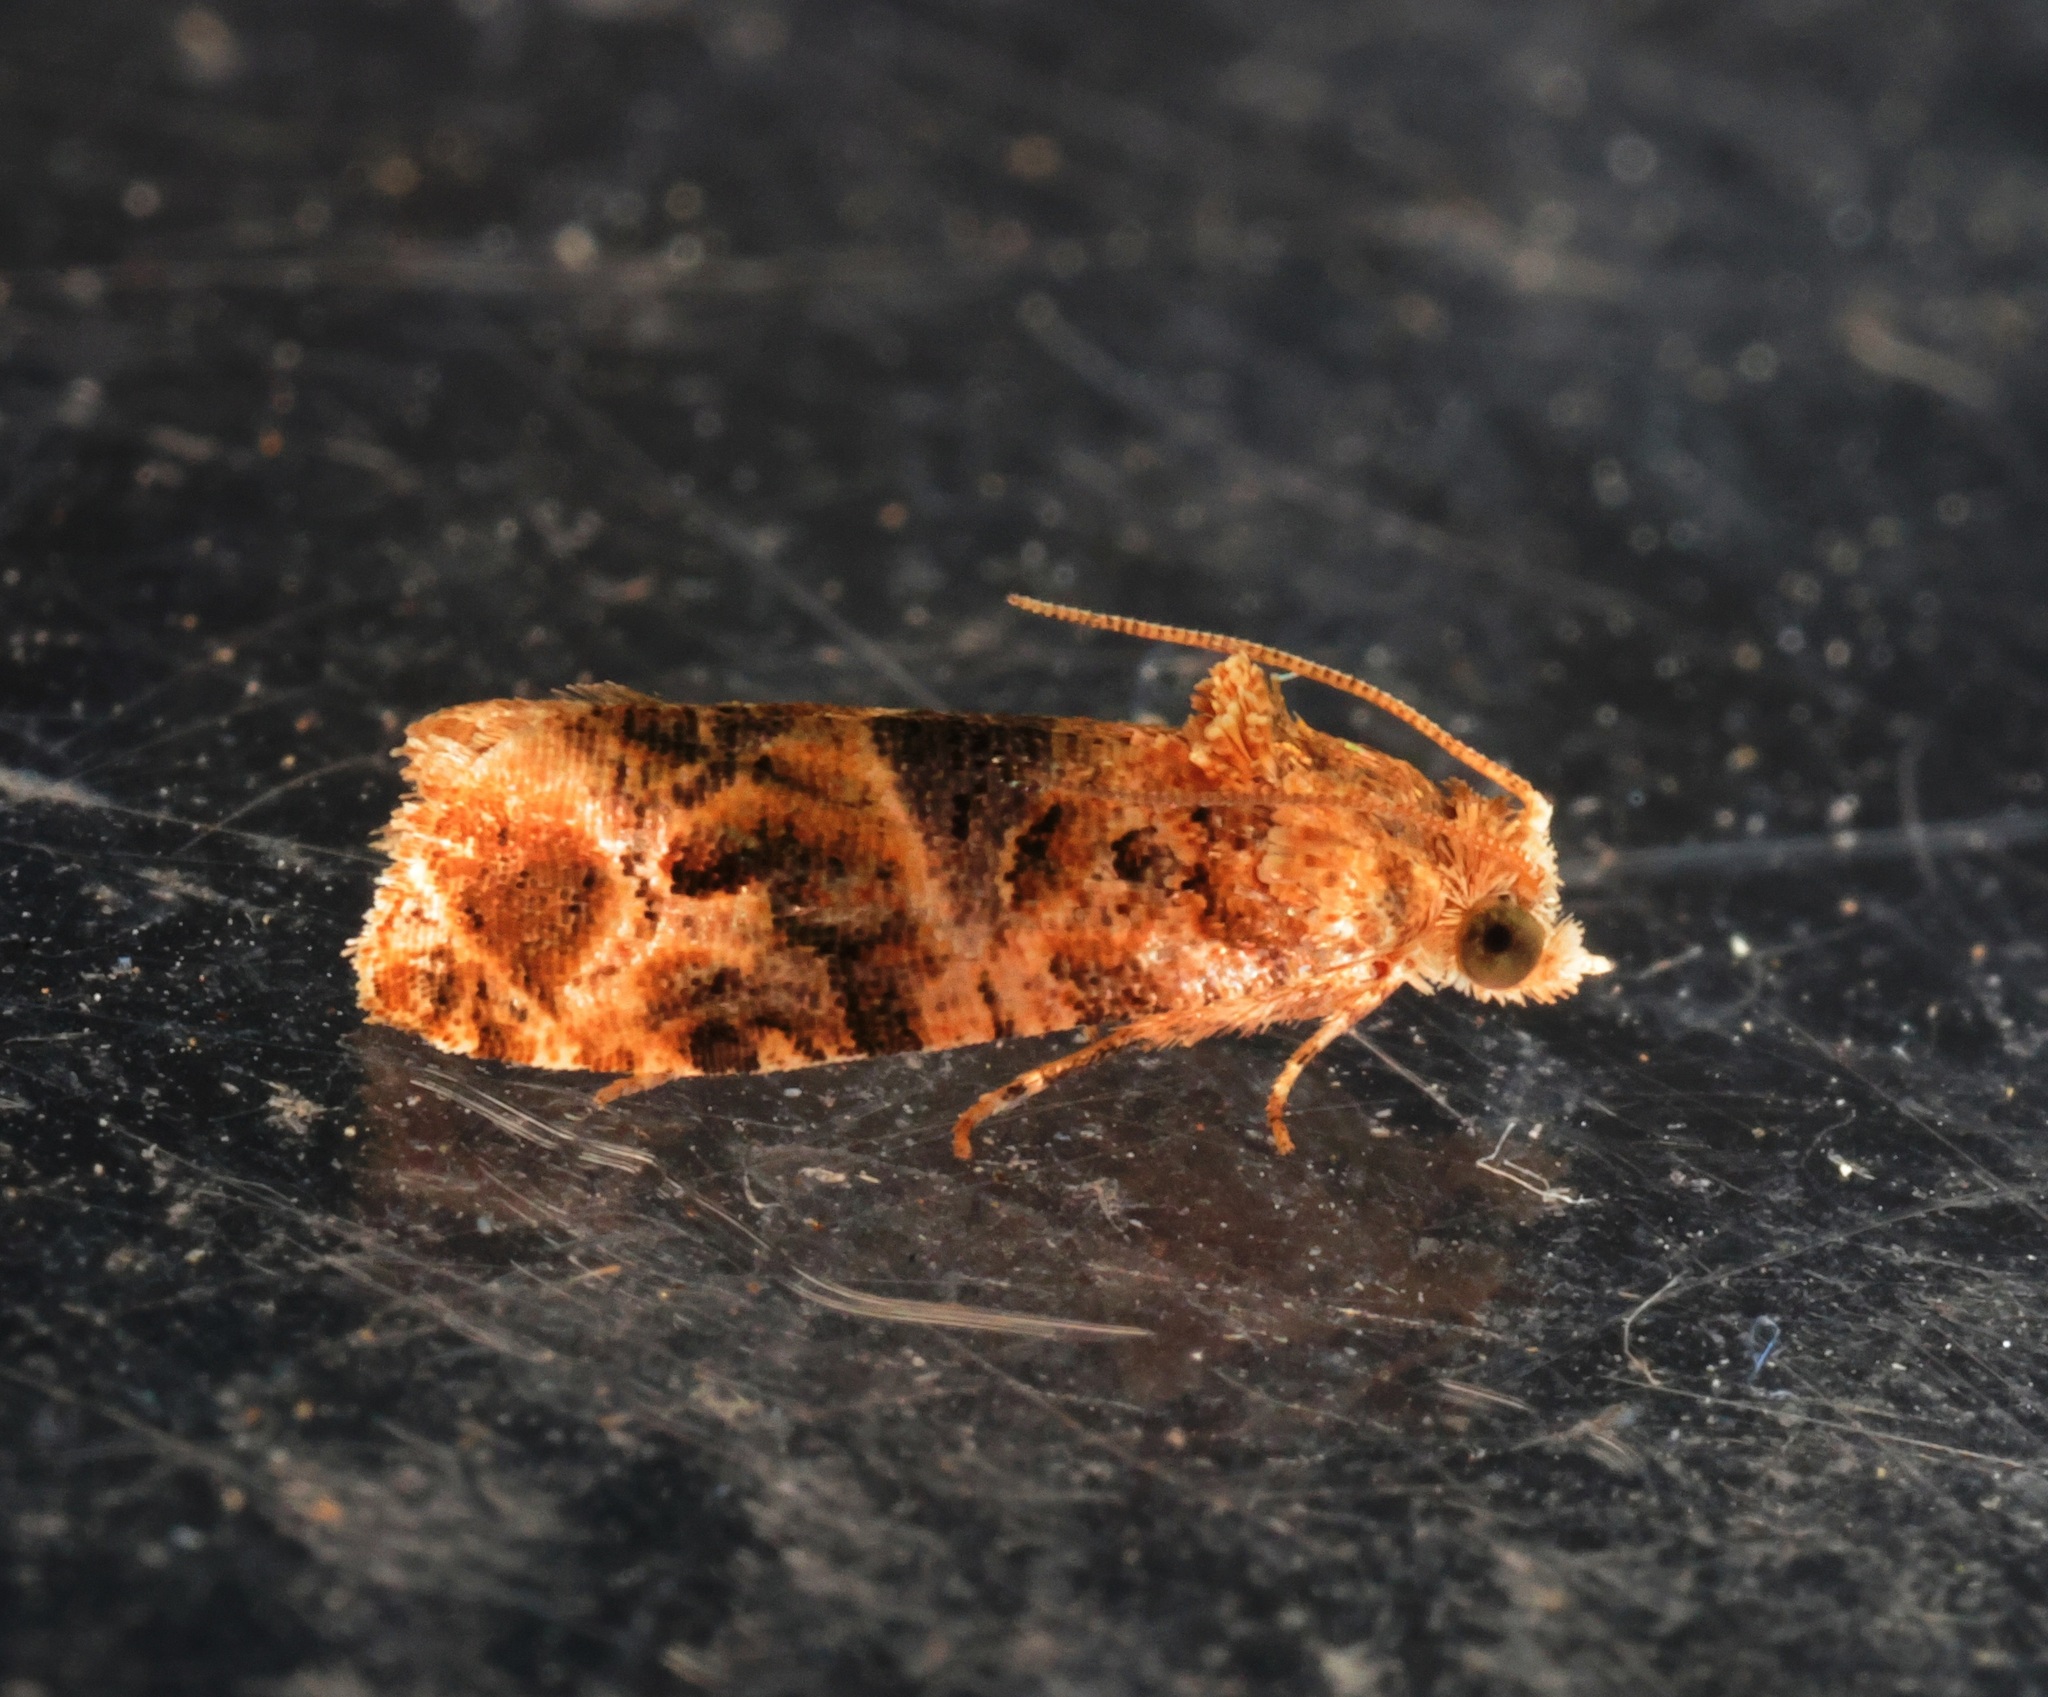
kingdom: Animalia
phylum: Arthropoda
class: Insecta
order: Lepidoptera
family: Tortricidae
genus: Lobesia
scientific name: Lobesia aeolopa
